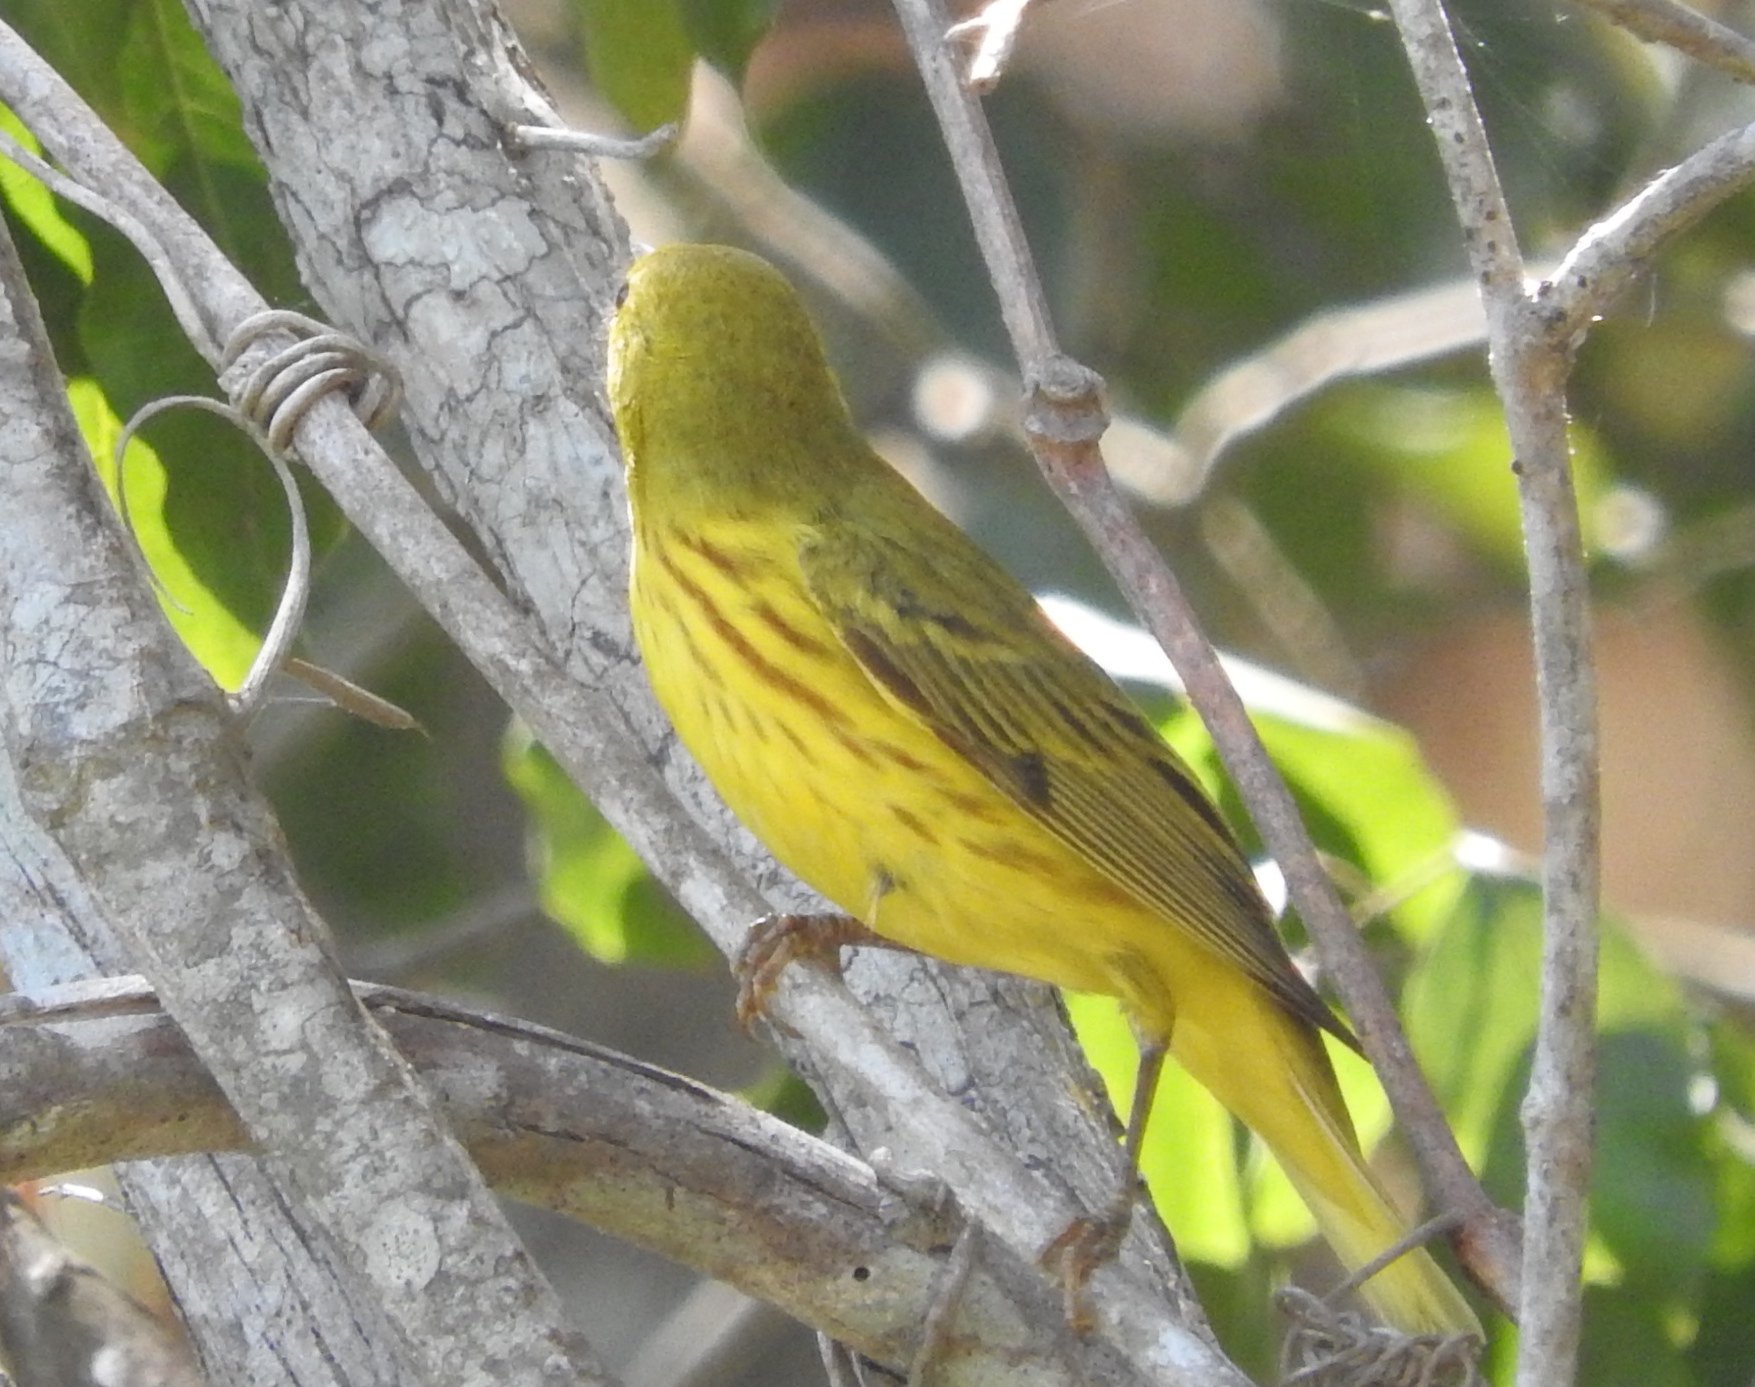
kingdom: Animalia
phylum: Chordata
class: Aves
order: Passeriformes
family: Parulidae
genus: Setophaga
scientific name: Setophaga petechia
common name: Yellow warbler
